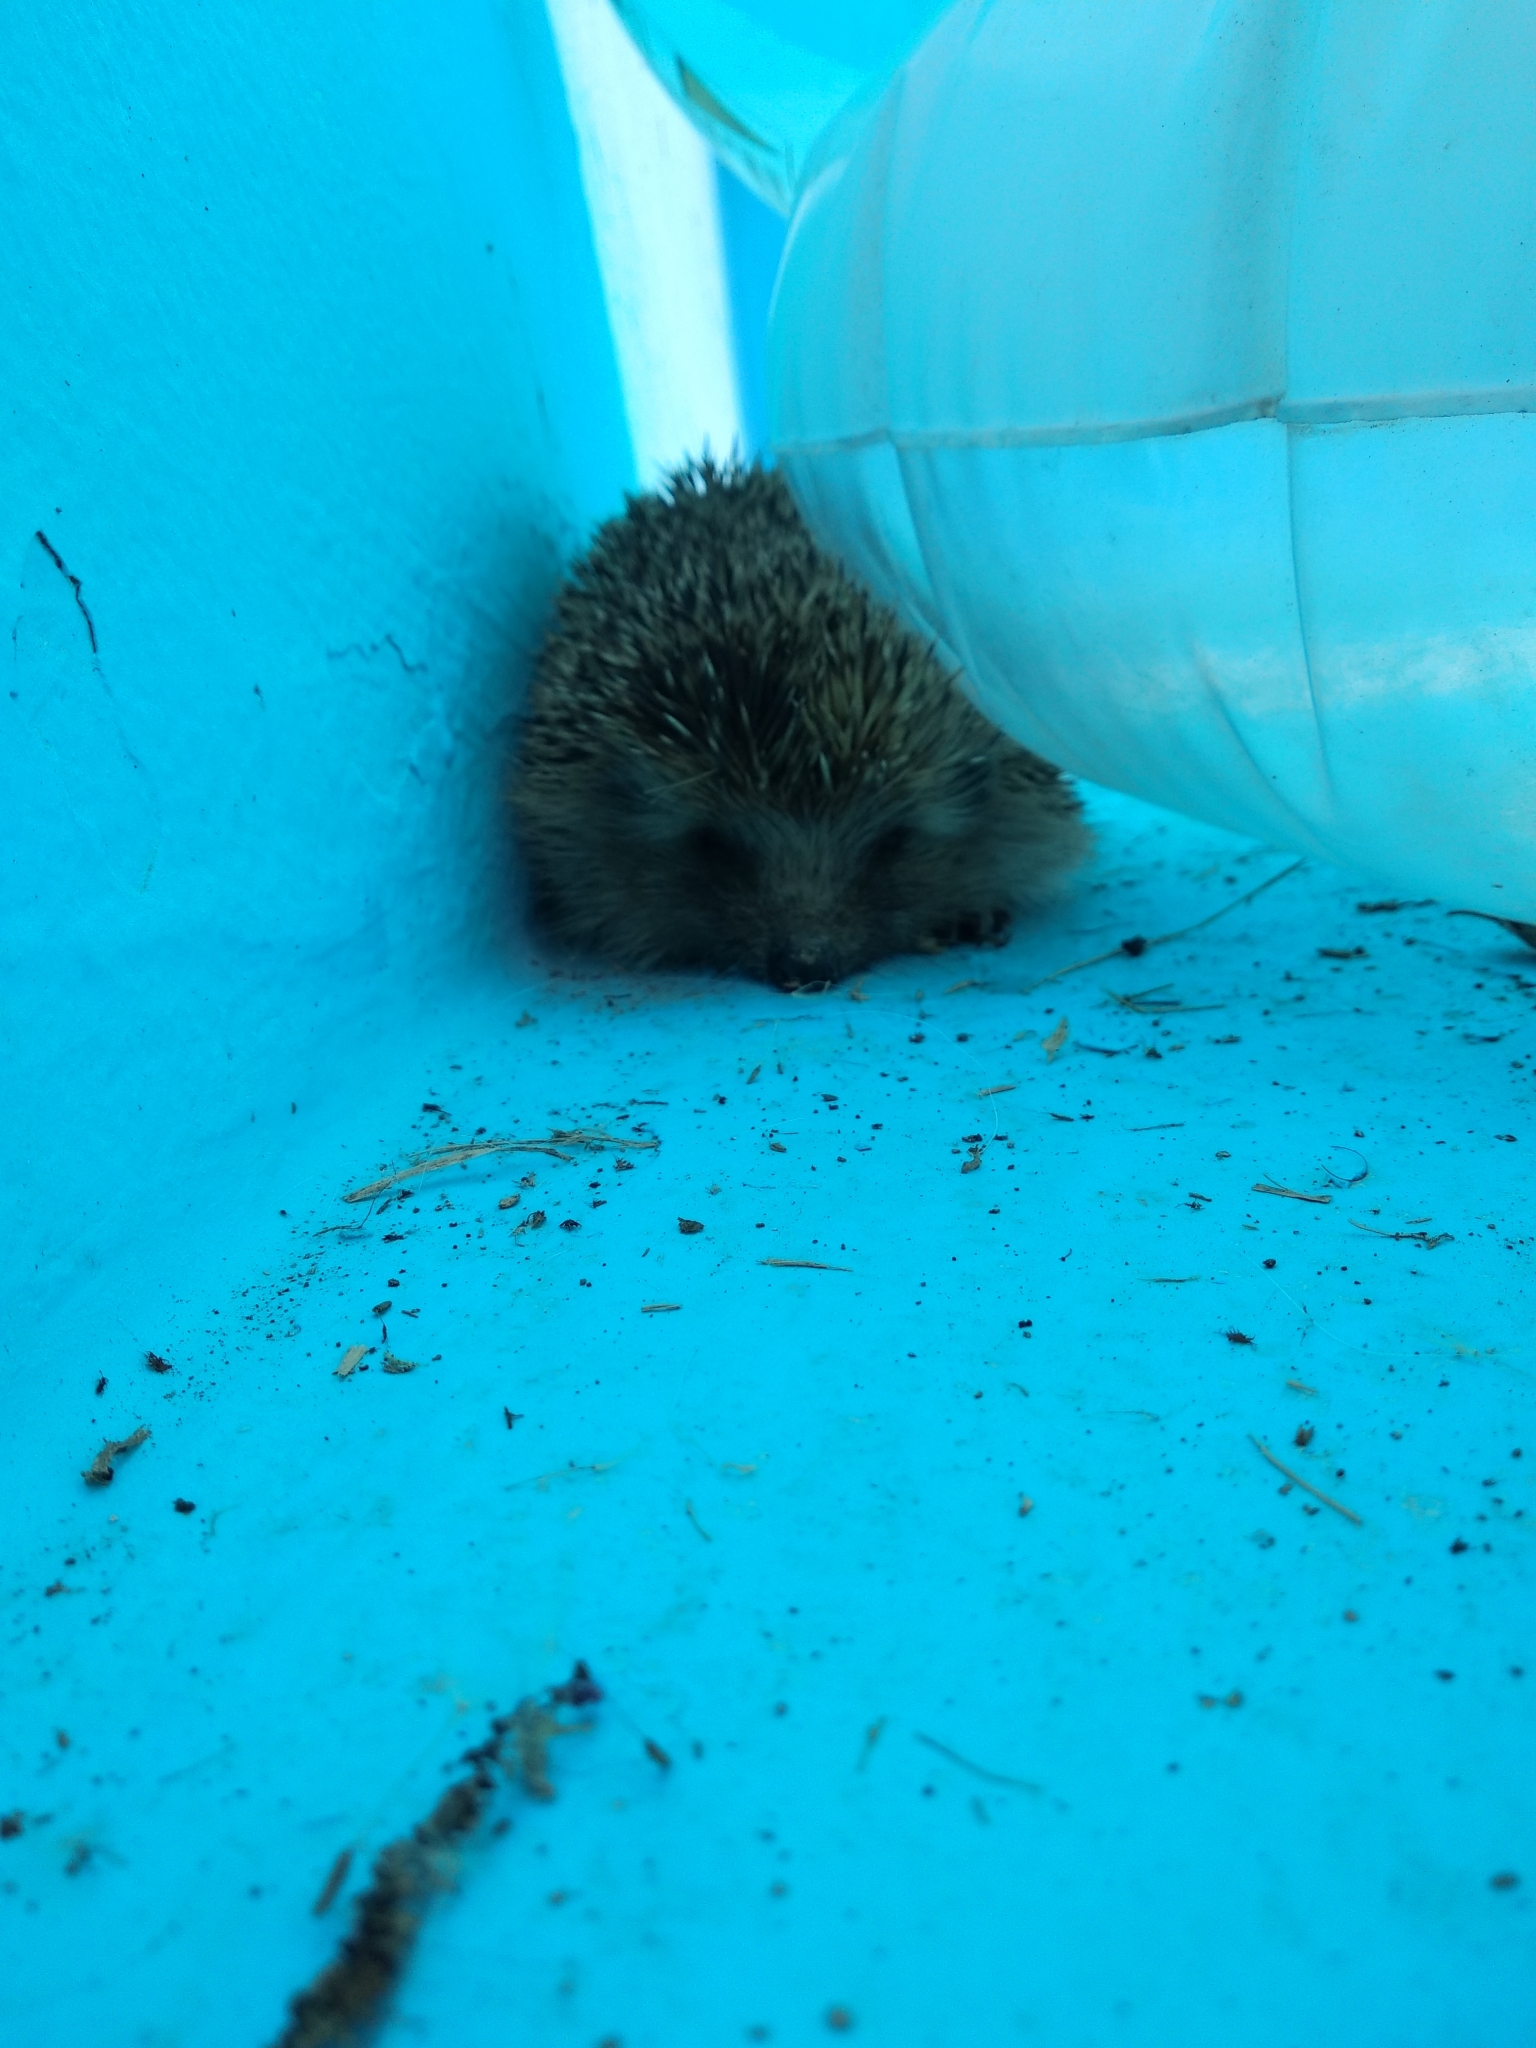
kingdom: Animalia
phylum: Chordata
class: Mammalia
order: Erinaceomorpha
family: Erinaceidae
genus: Erinaceus
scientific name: Erinaceus europaeus
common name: West european hedgehog
